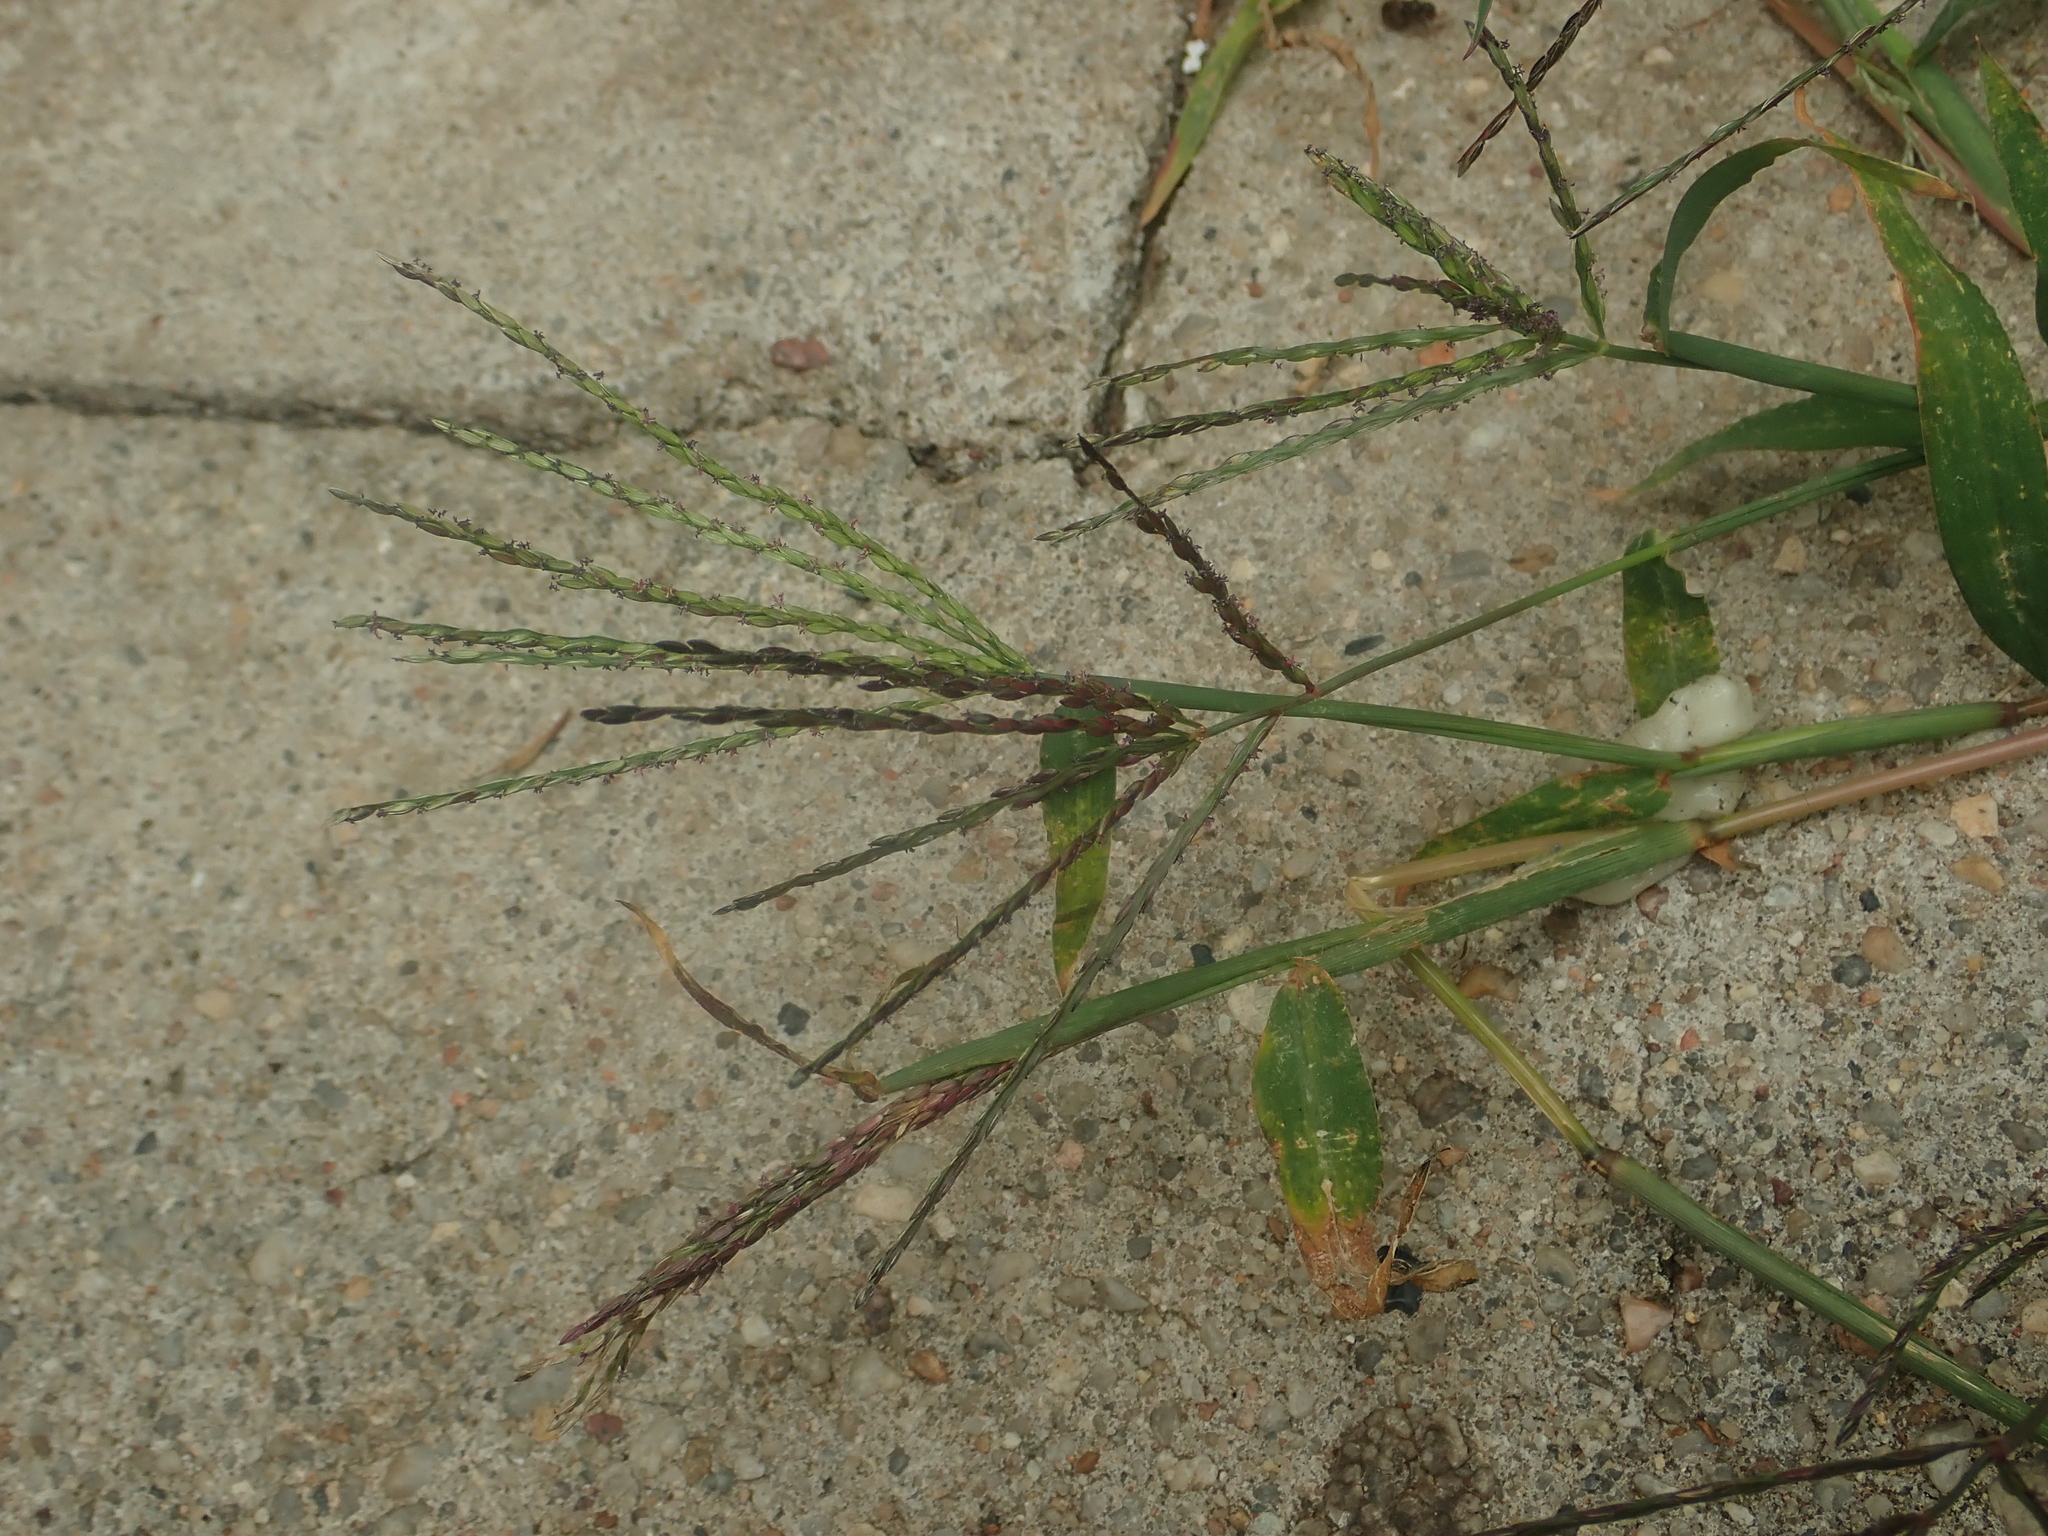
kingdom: Plantae
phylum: Tracheophyta
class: Liliopsida
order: Poales
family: Poaceae
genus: Digitaria
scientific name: Digitaria sanguinalis
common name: Hairy crabgrass
